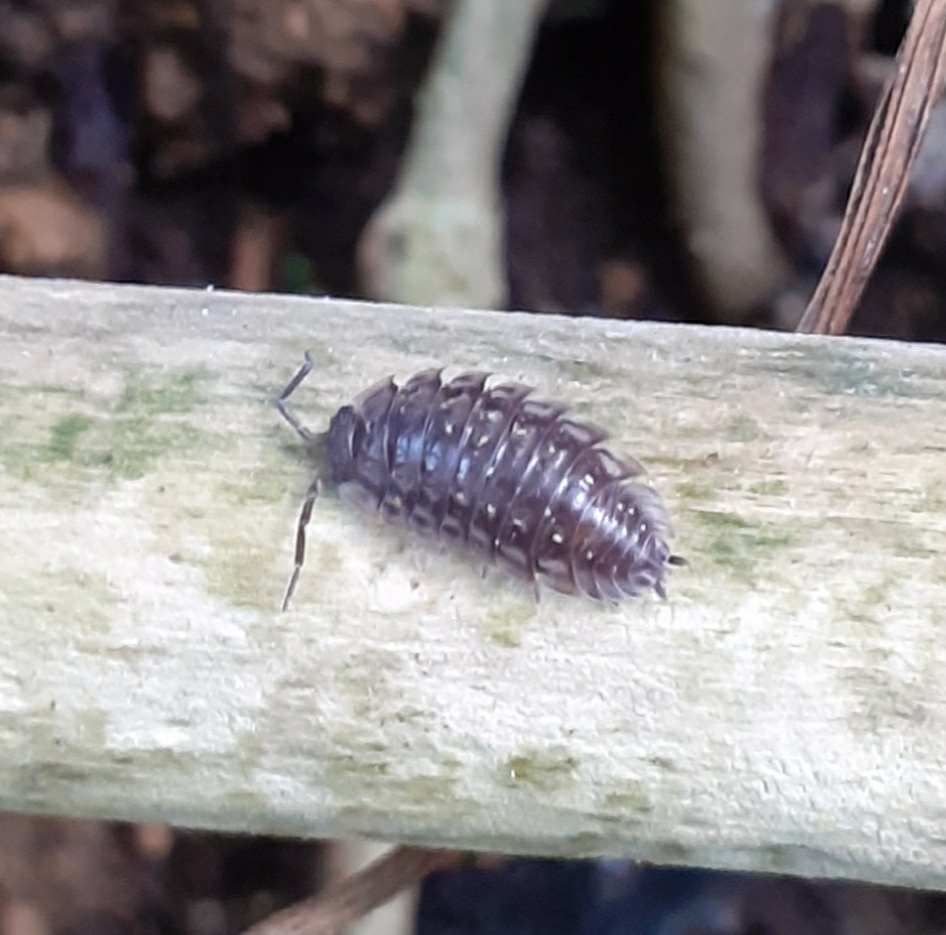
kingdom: Animalia
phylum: Arthropoda
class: Malacostraca
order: Isopoda
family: Oniscidae
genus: Oniscus
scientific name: Oniscus asellus
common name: Common shiny woodlouse
